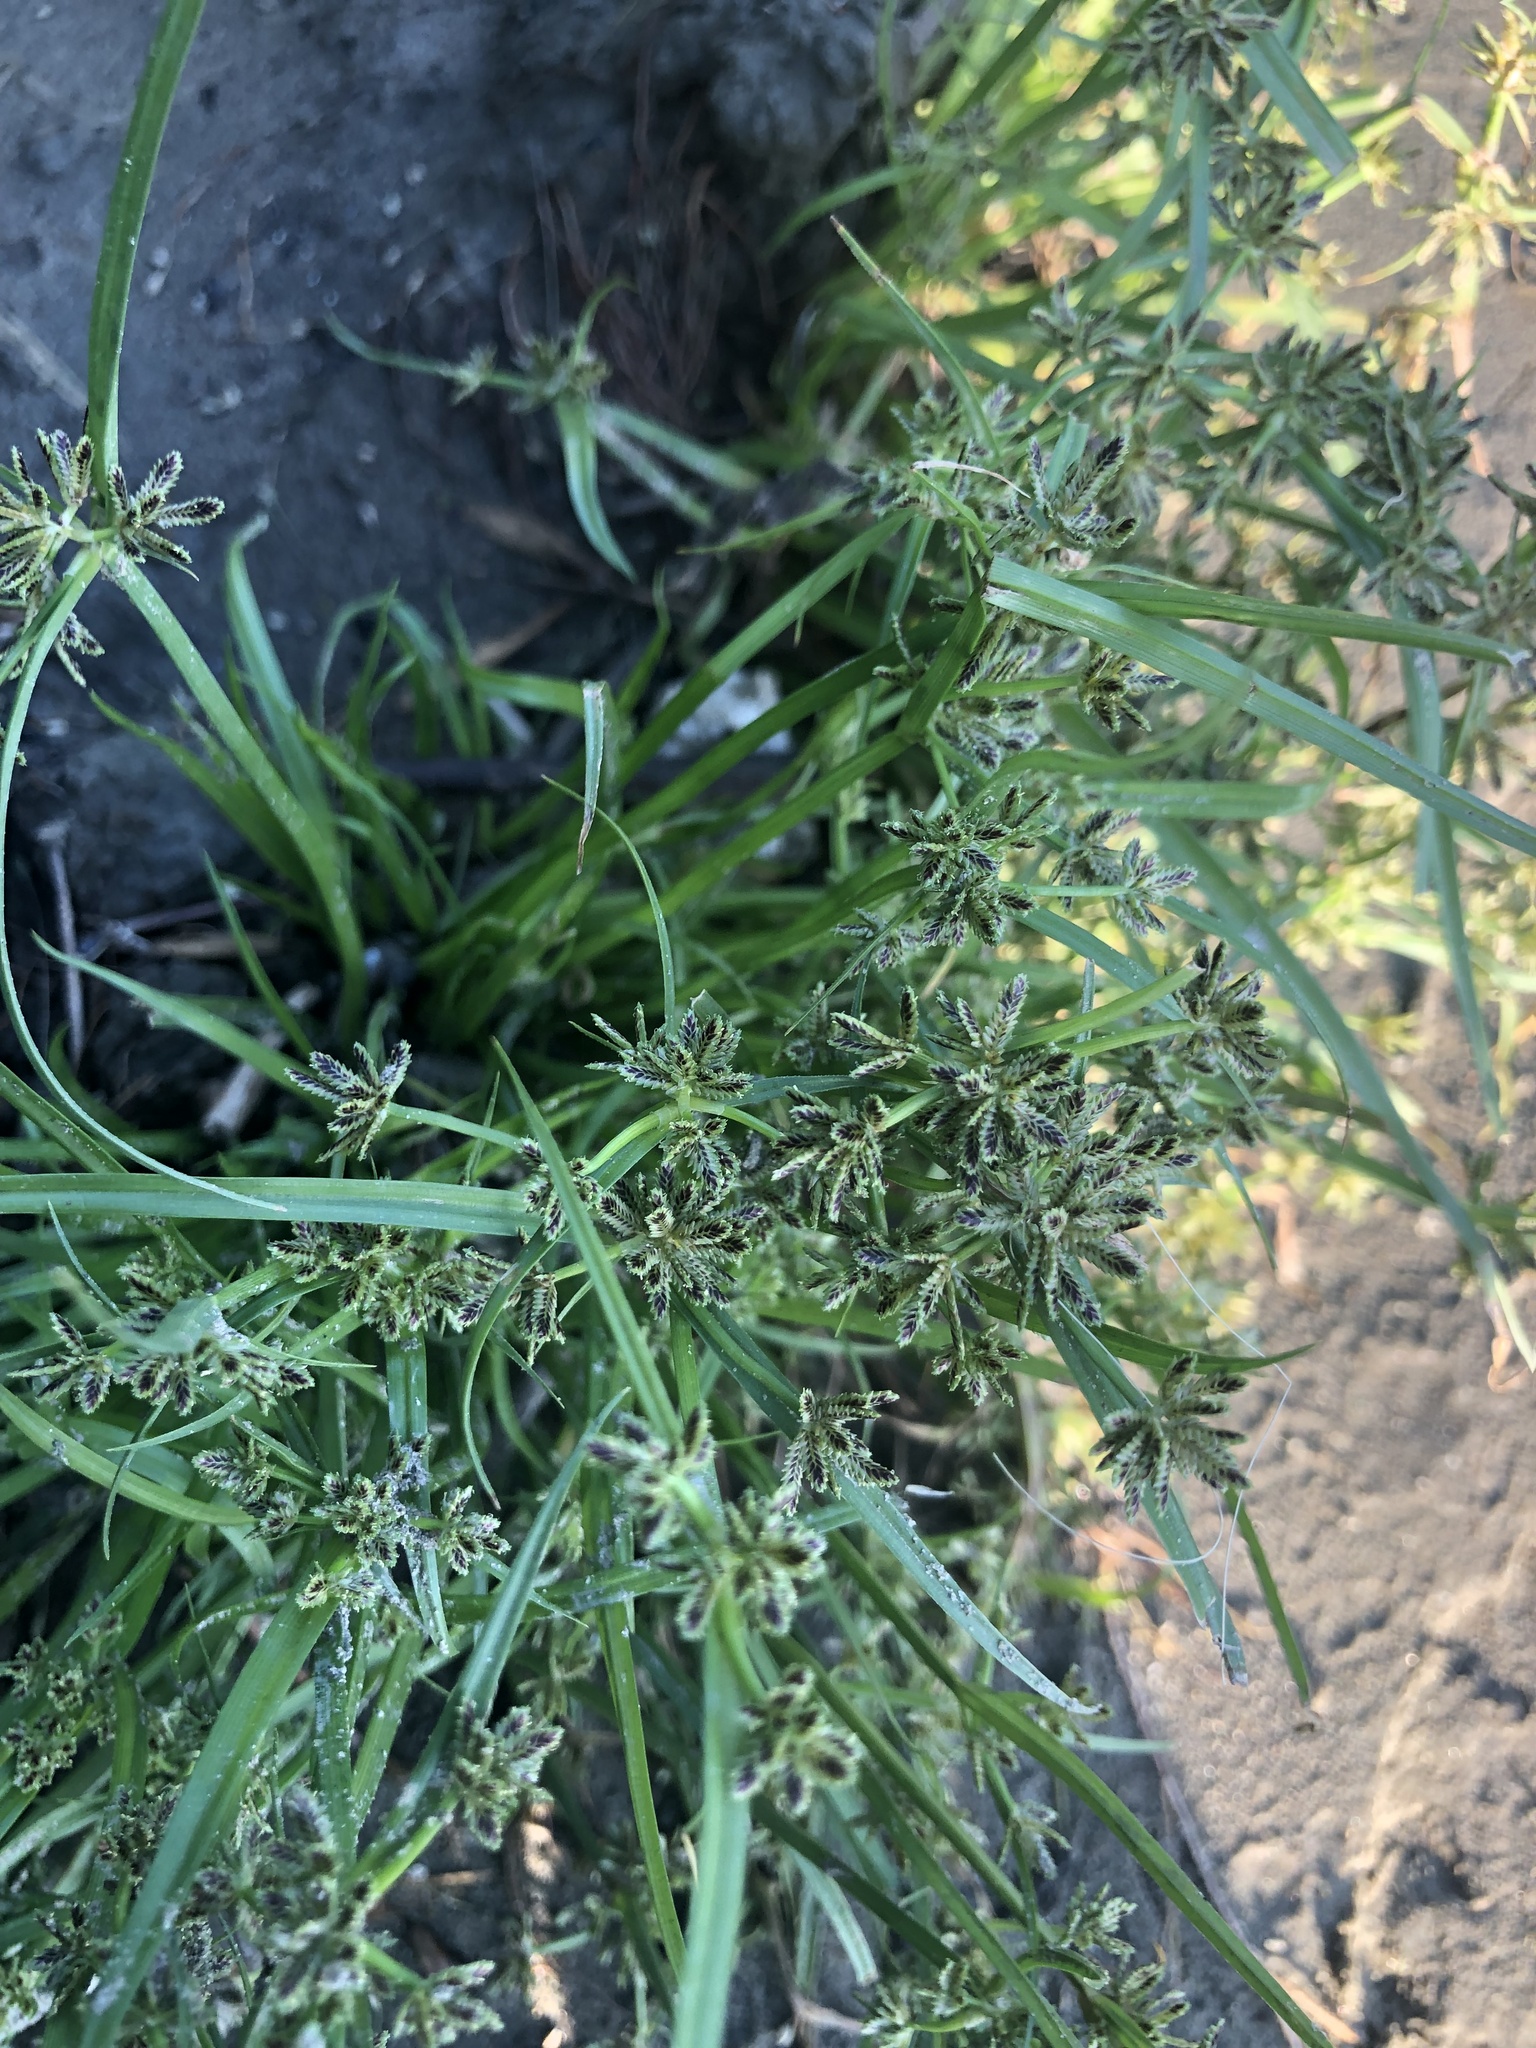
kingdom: Plantae
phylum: Tracheophyta
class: Liliopsida
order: Poales
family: Cyperaceae
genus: Cyperus
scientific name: Cyperus fuscus
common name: Brown galingale
